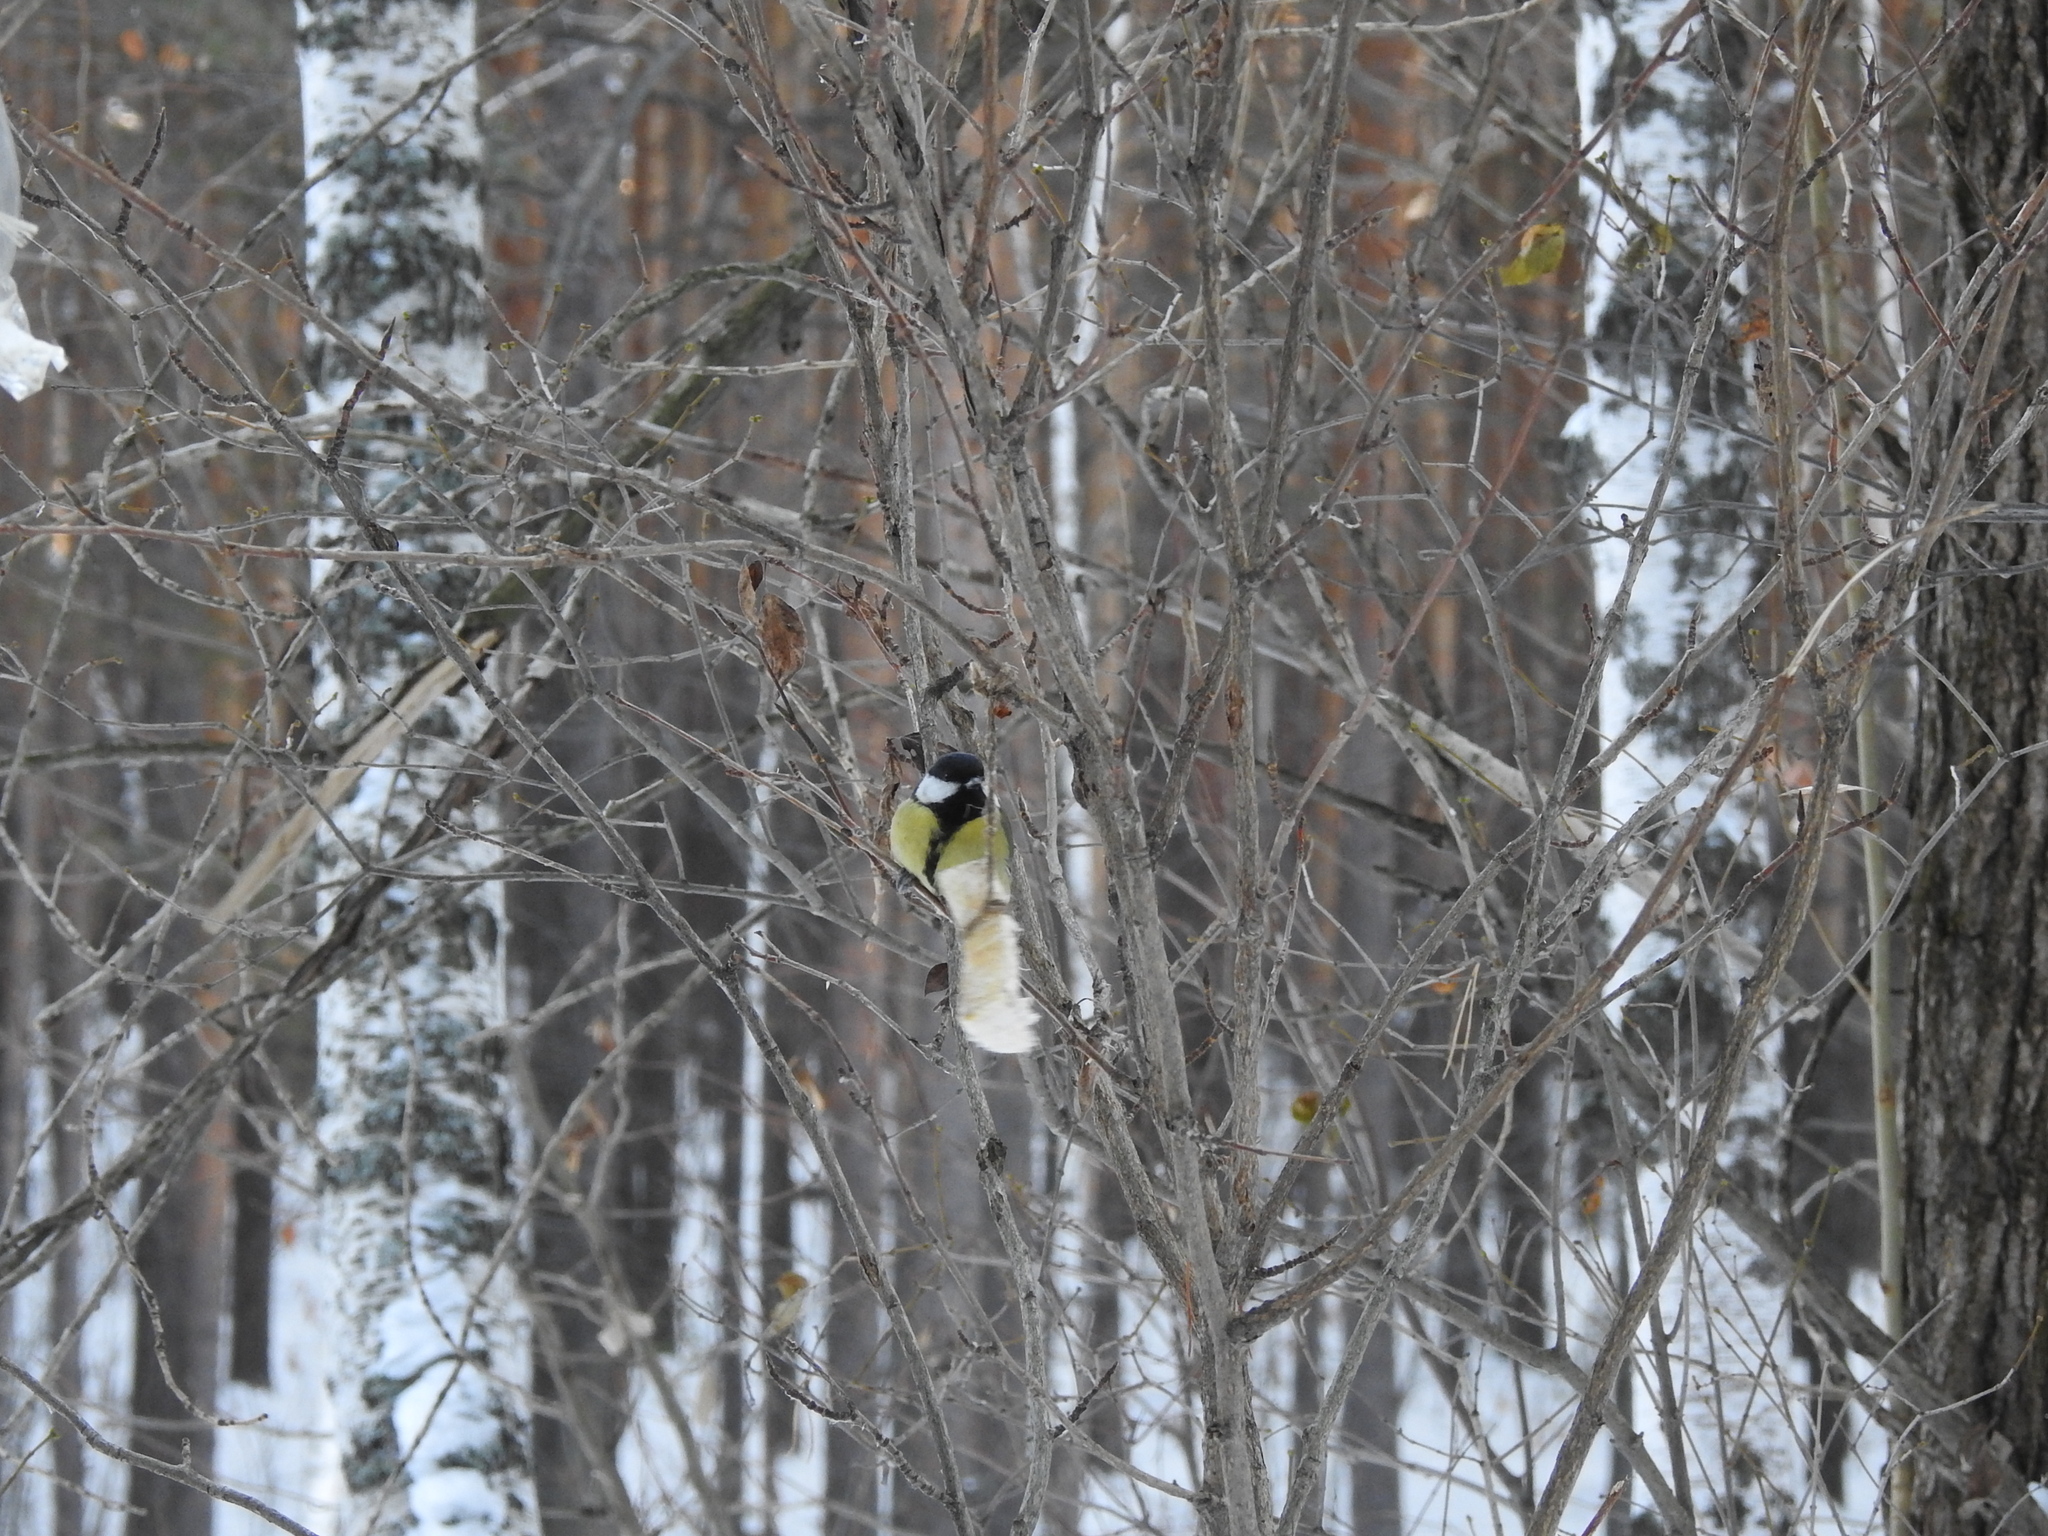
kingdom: Animalia
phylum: Chordata
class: Aves
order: Passeriformes
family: Paridae
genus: Parus
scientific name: Parus major
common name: Great tit
